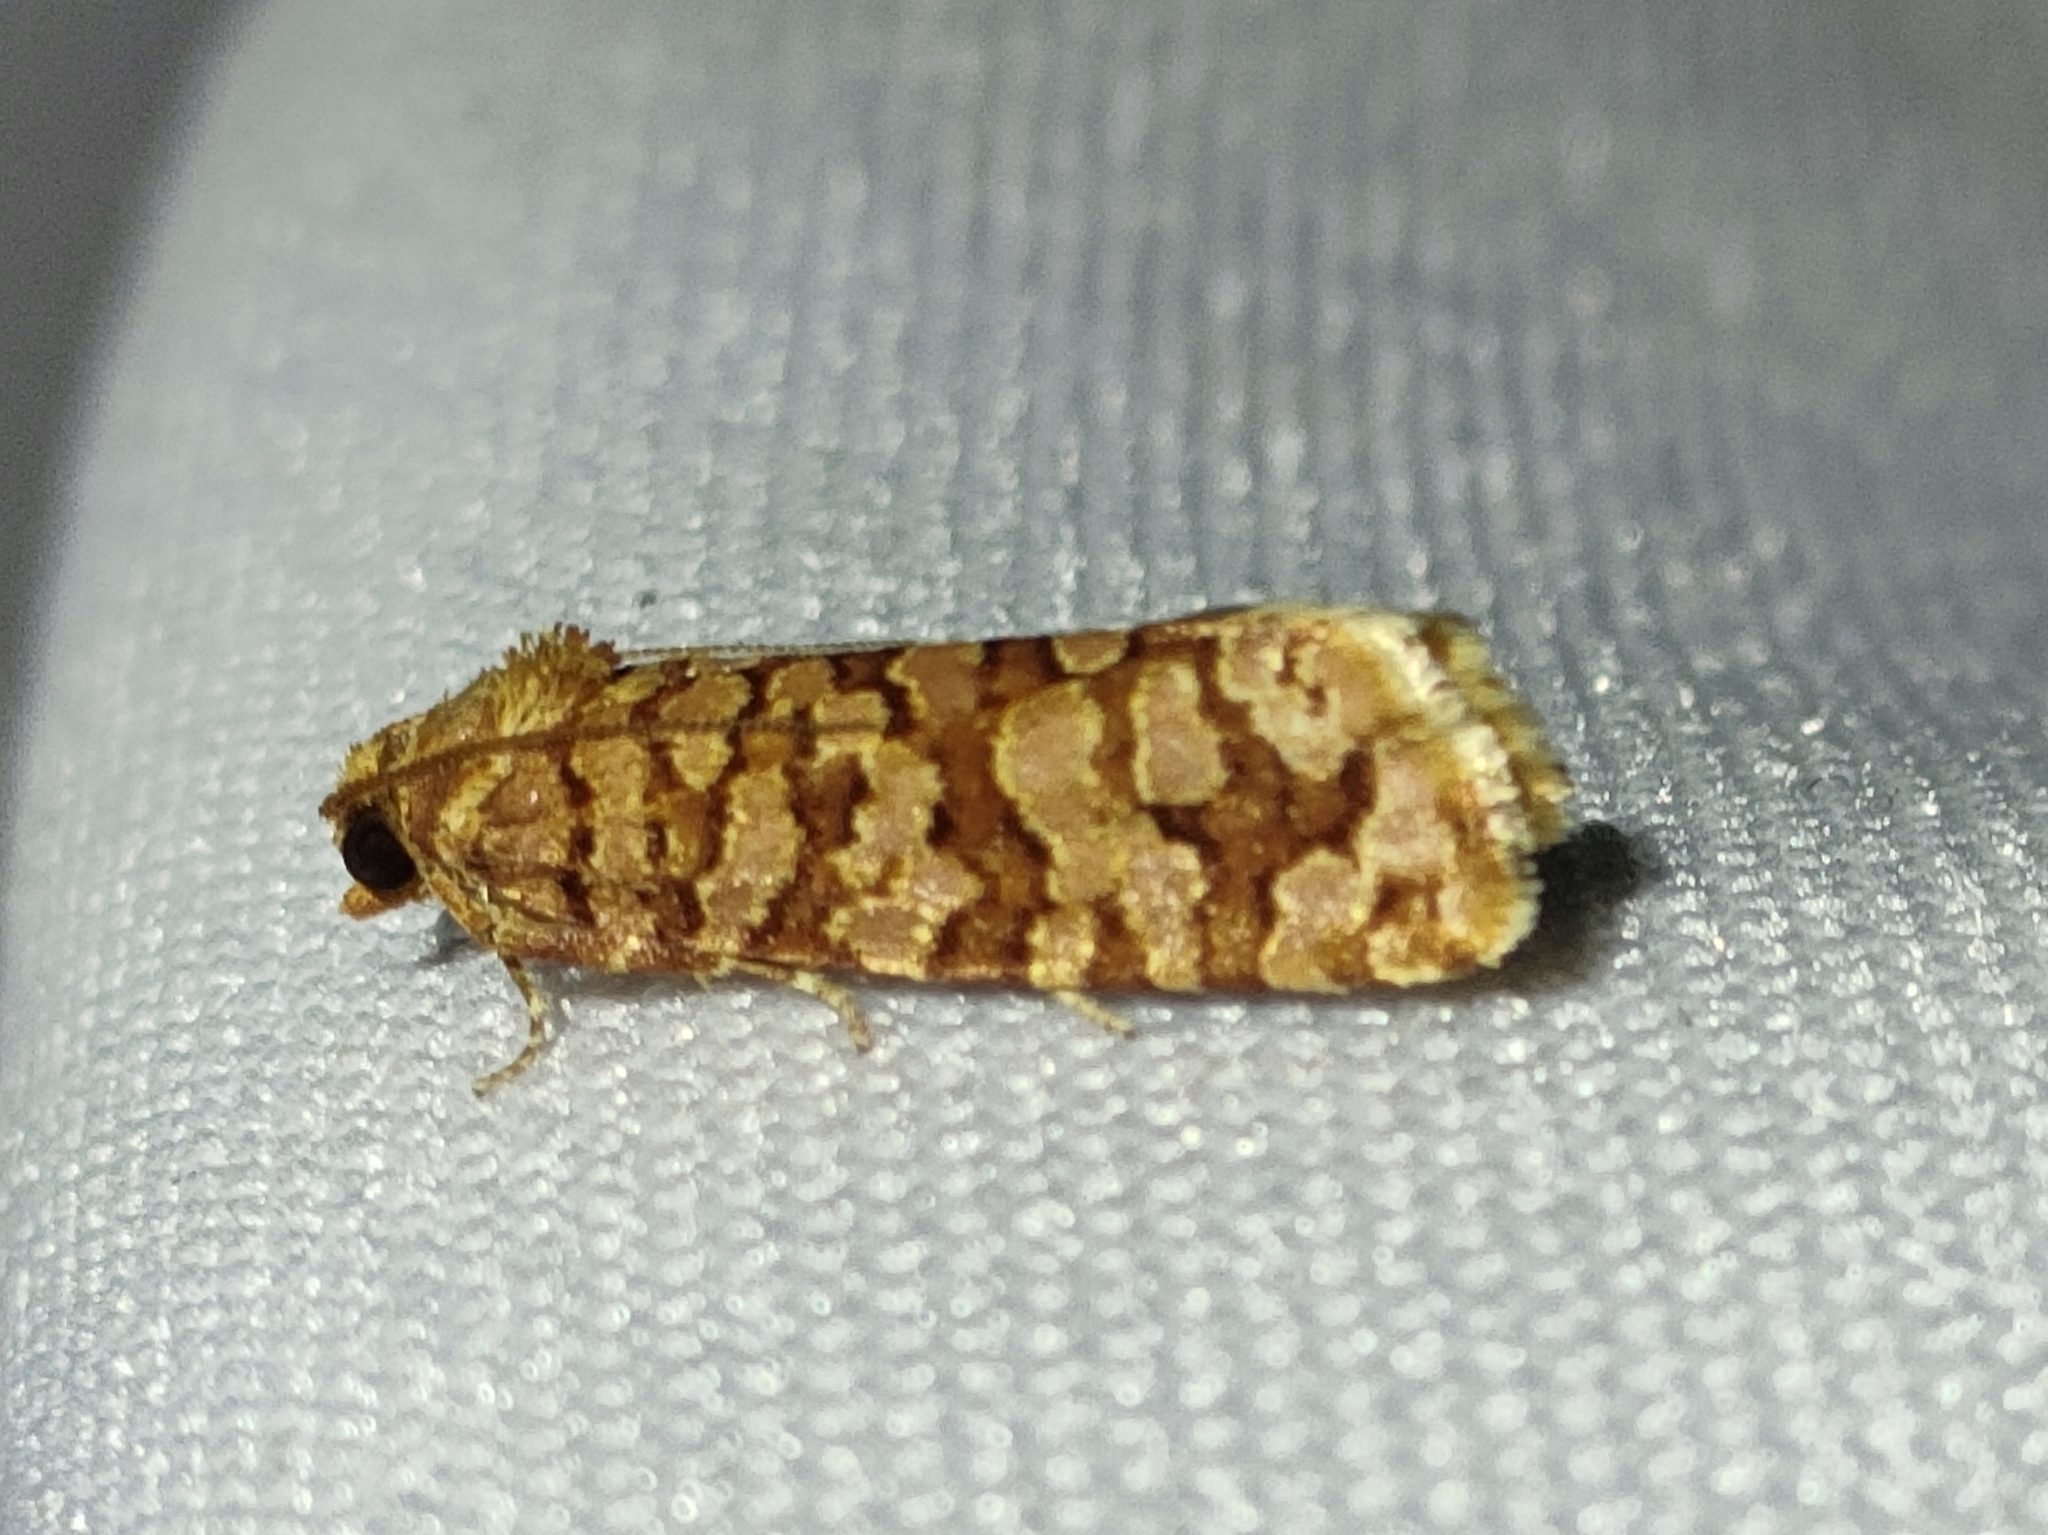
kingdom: Animalia
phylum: Arthropoda
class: Insecta
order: Lepidoptera
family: Tortricidae
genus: Lozotaeniodes
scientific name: Lozotaeniodes formosana
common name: Orange pine twist
